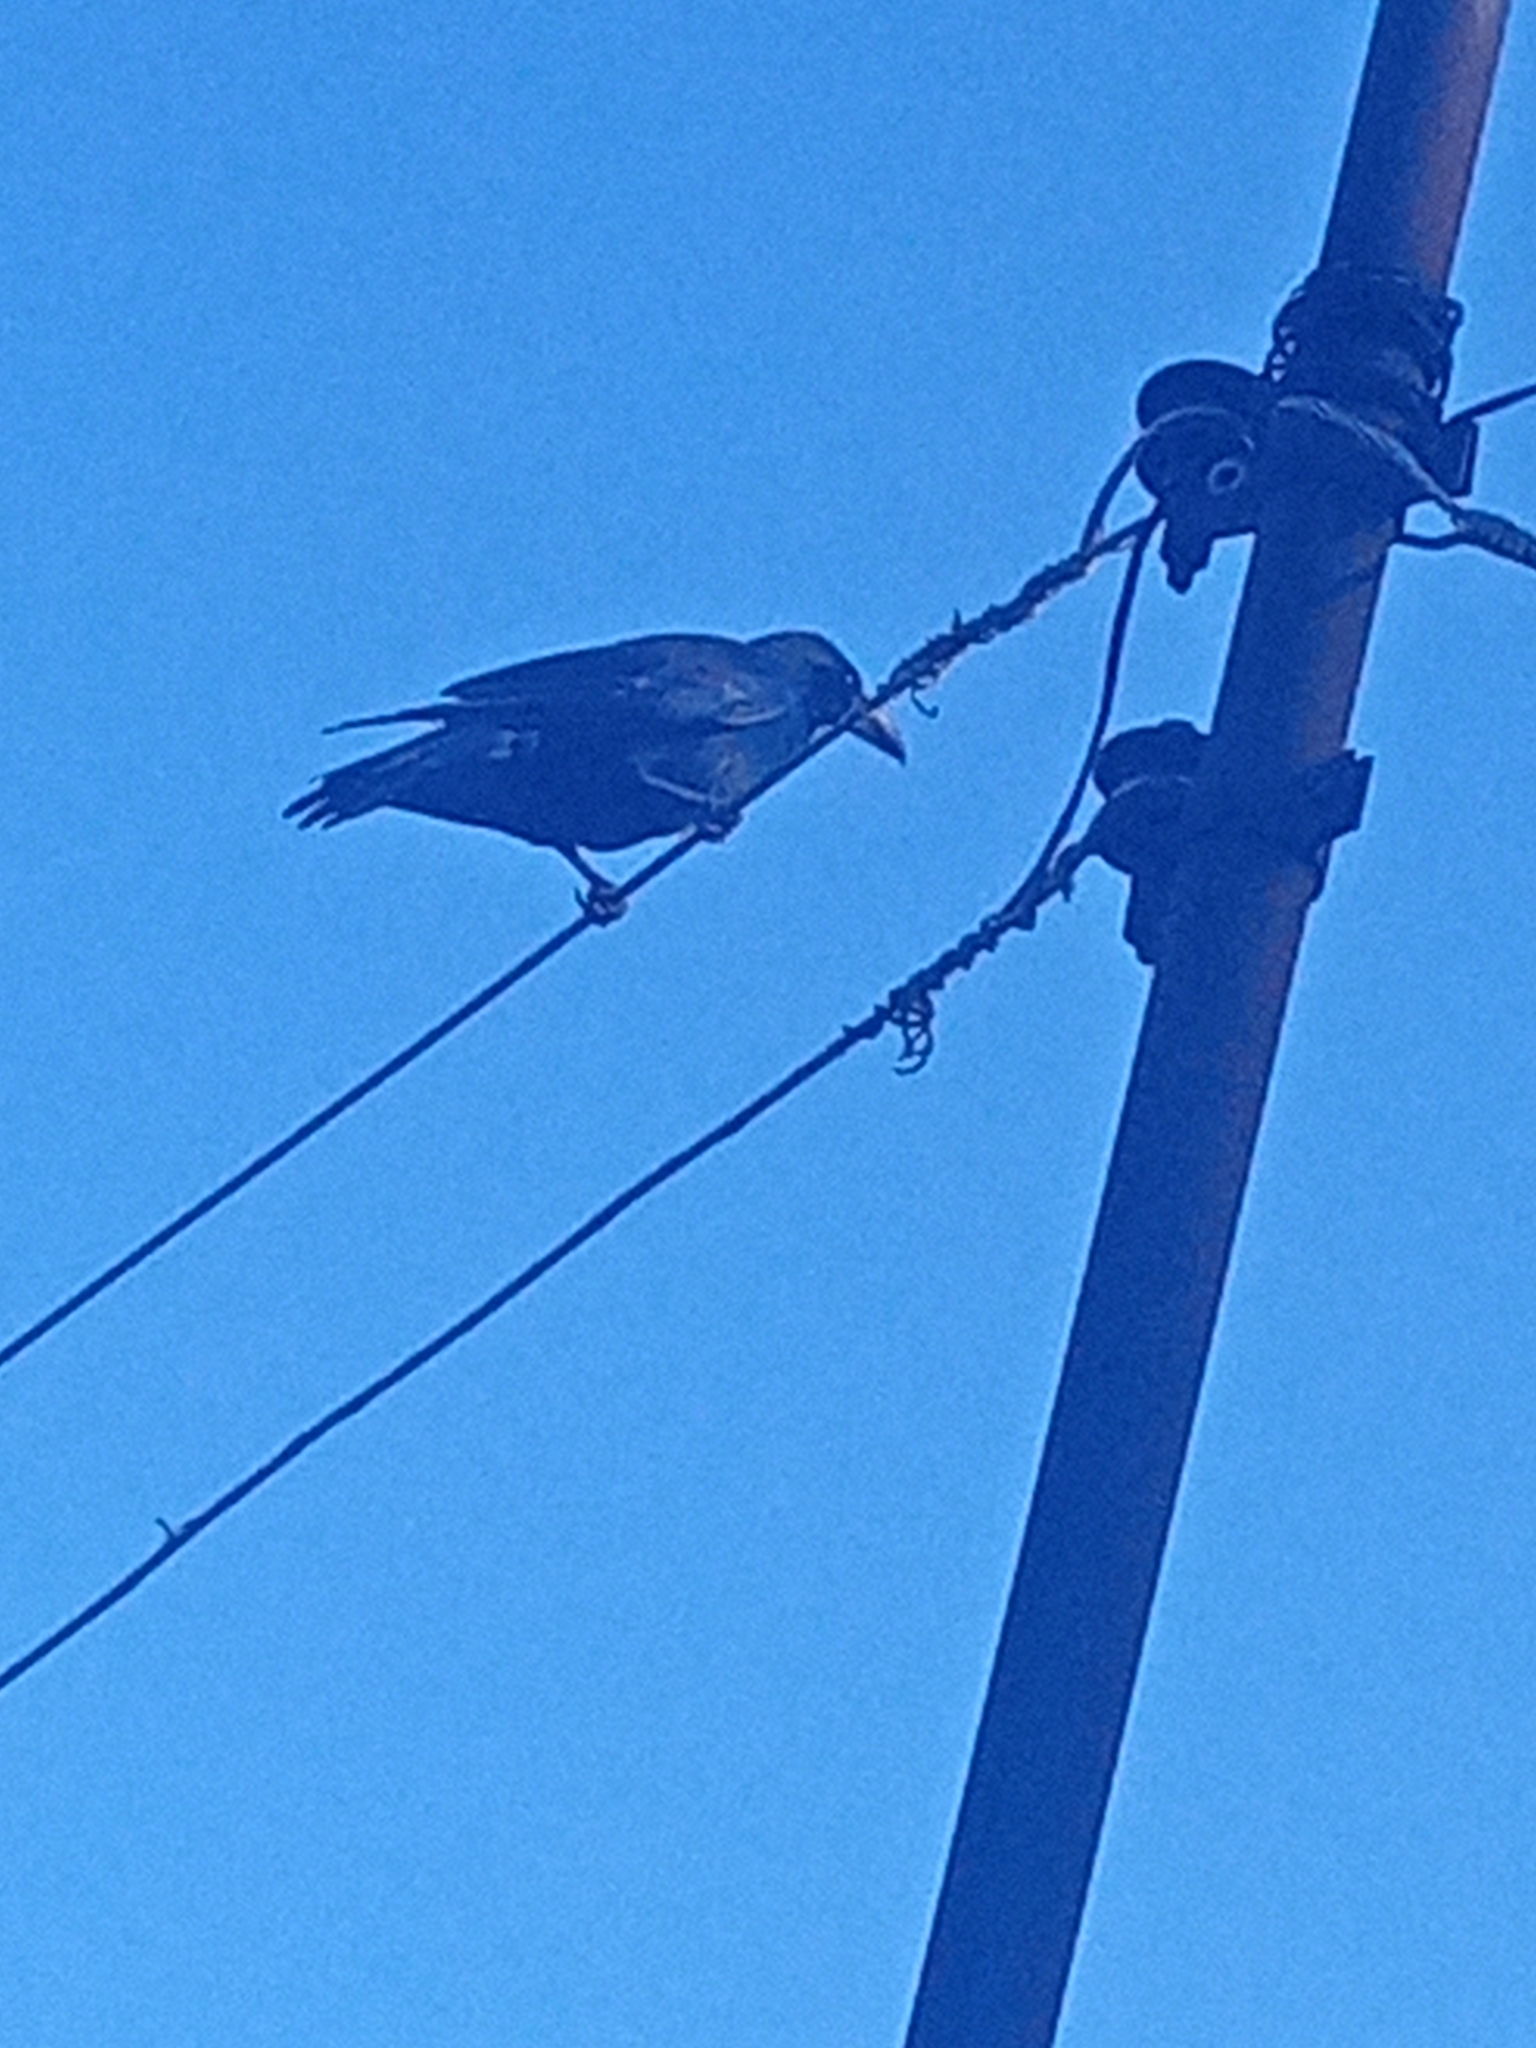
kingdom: Animalia
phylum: Chordata
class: Aves
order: Passeriformes
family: Corvidae
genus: Corvus
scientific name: Corvus macrorhynchos
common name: Large-billed crow
